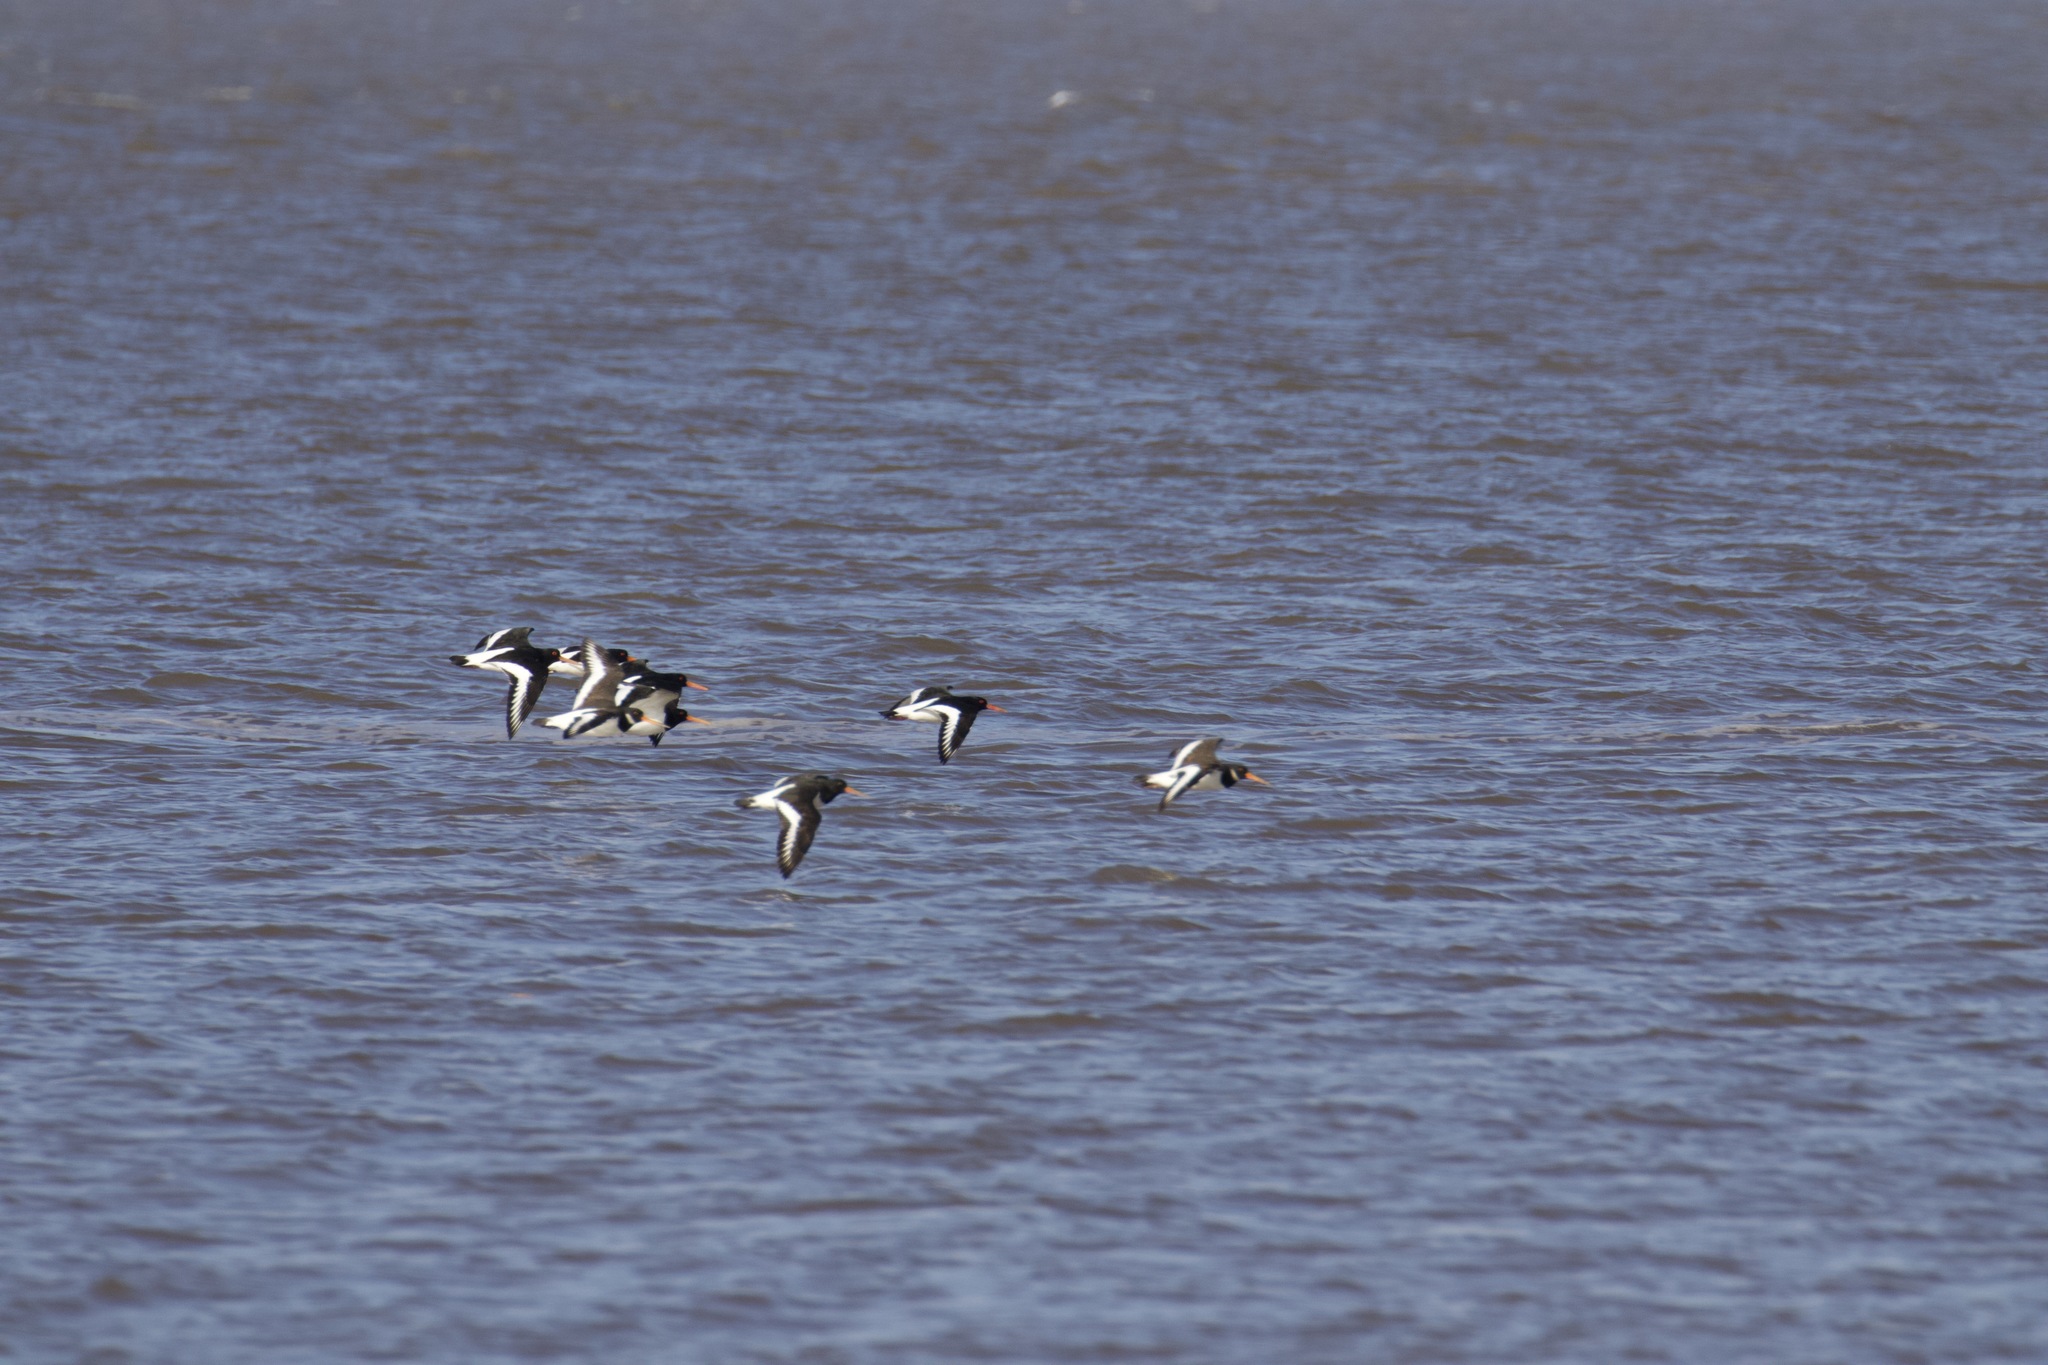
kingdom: Animalia
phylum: Chordata
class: Aves
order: Charadriiformes
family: Haematopodidae
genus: Haematopus
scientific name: Haematopus ostralegus
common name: Eurasian oystercatcher
